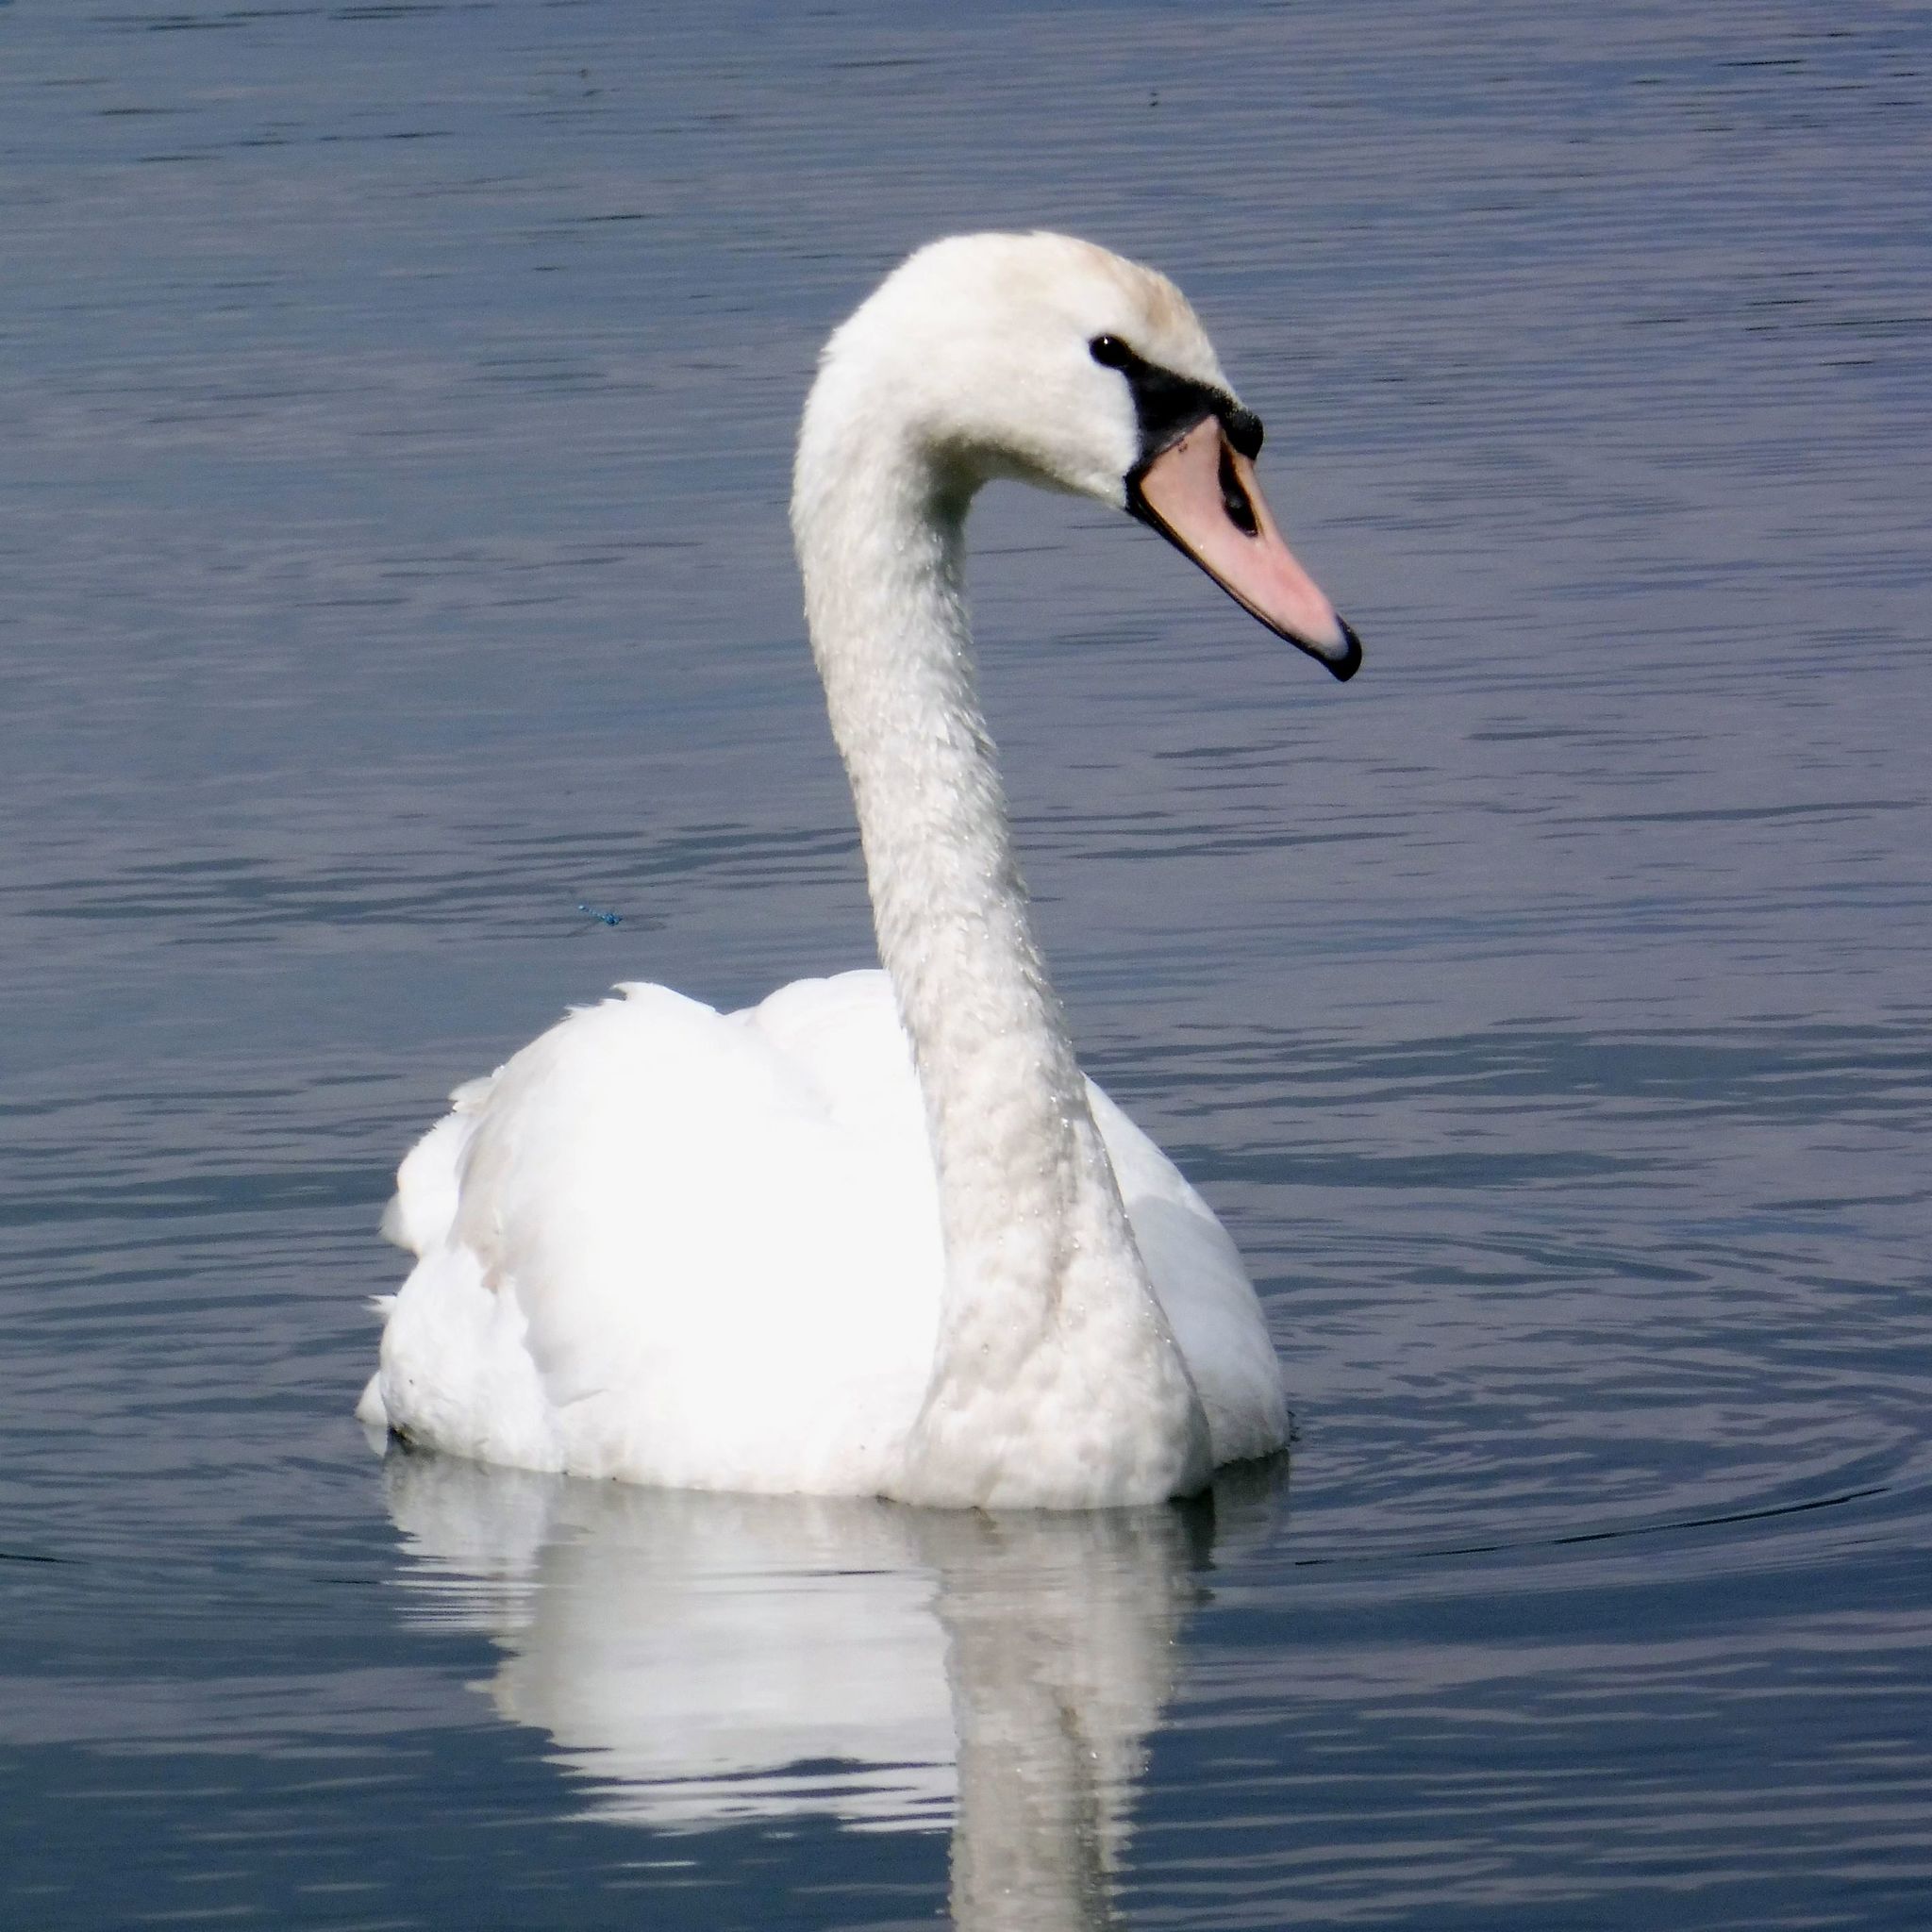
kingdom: Animalia
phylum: Chordata
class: Aves
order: Anseriformes
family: Anatidae
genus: Cygnus
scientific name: Cygnus olor
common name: Mute swan
